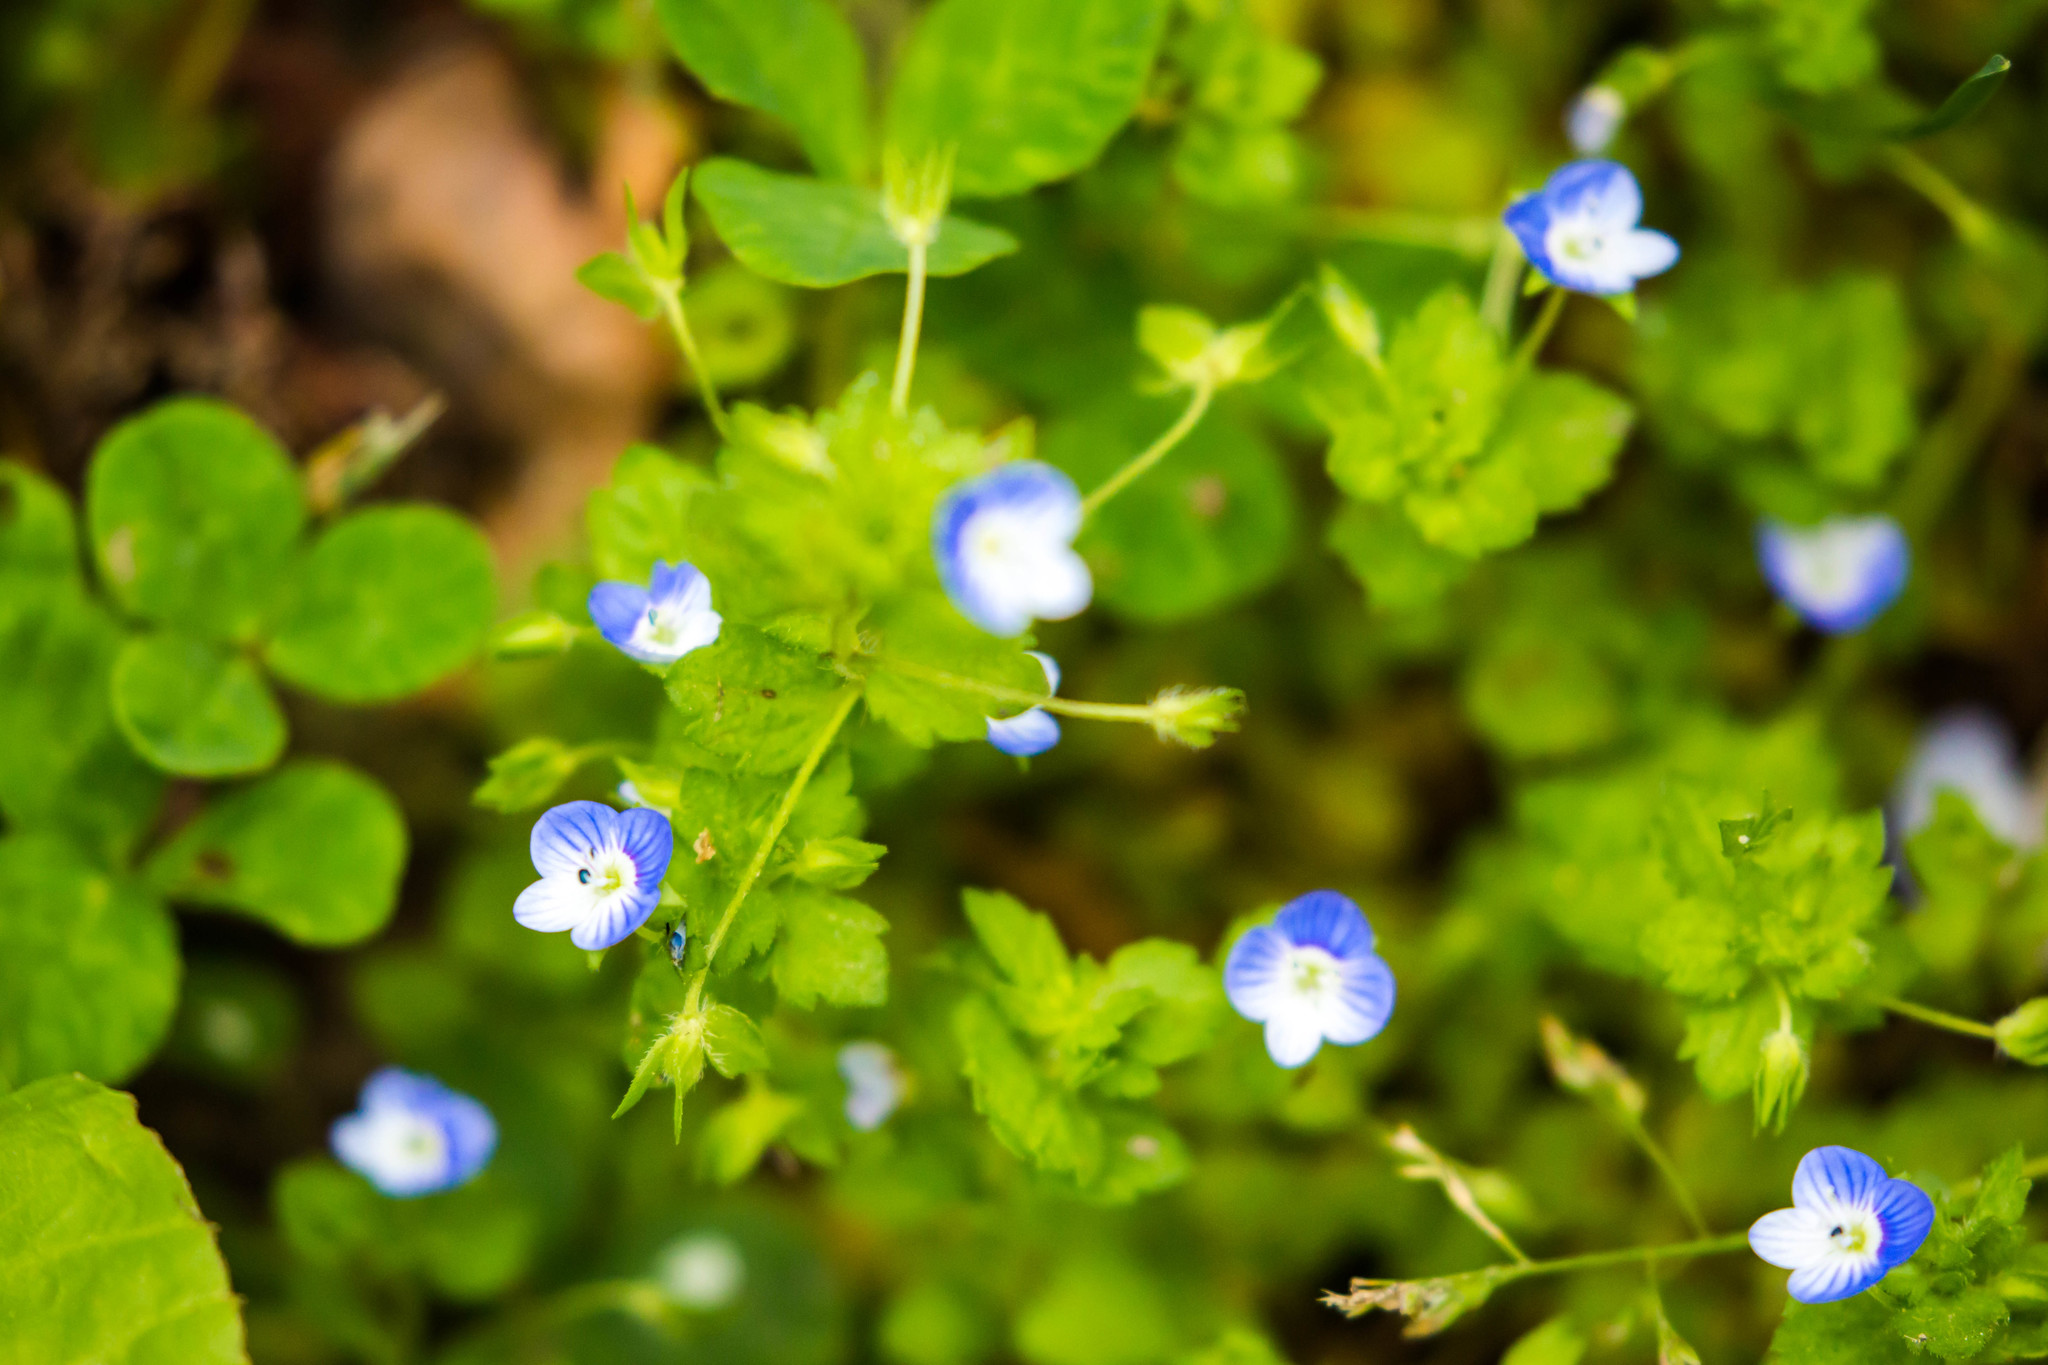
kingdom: Plantae
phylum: Tracheophyta
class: Magnoliopsida
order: Lamiales
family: Plantaginaceae
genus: Veronica
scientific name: Veronica persica
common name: Common field-speedwell
